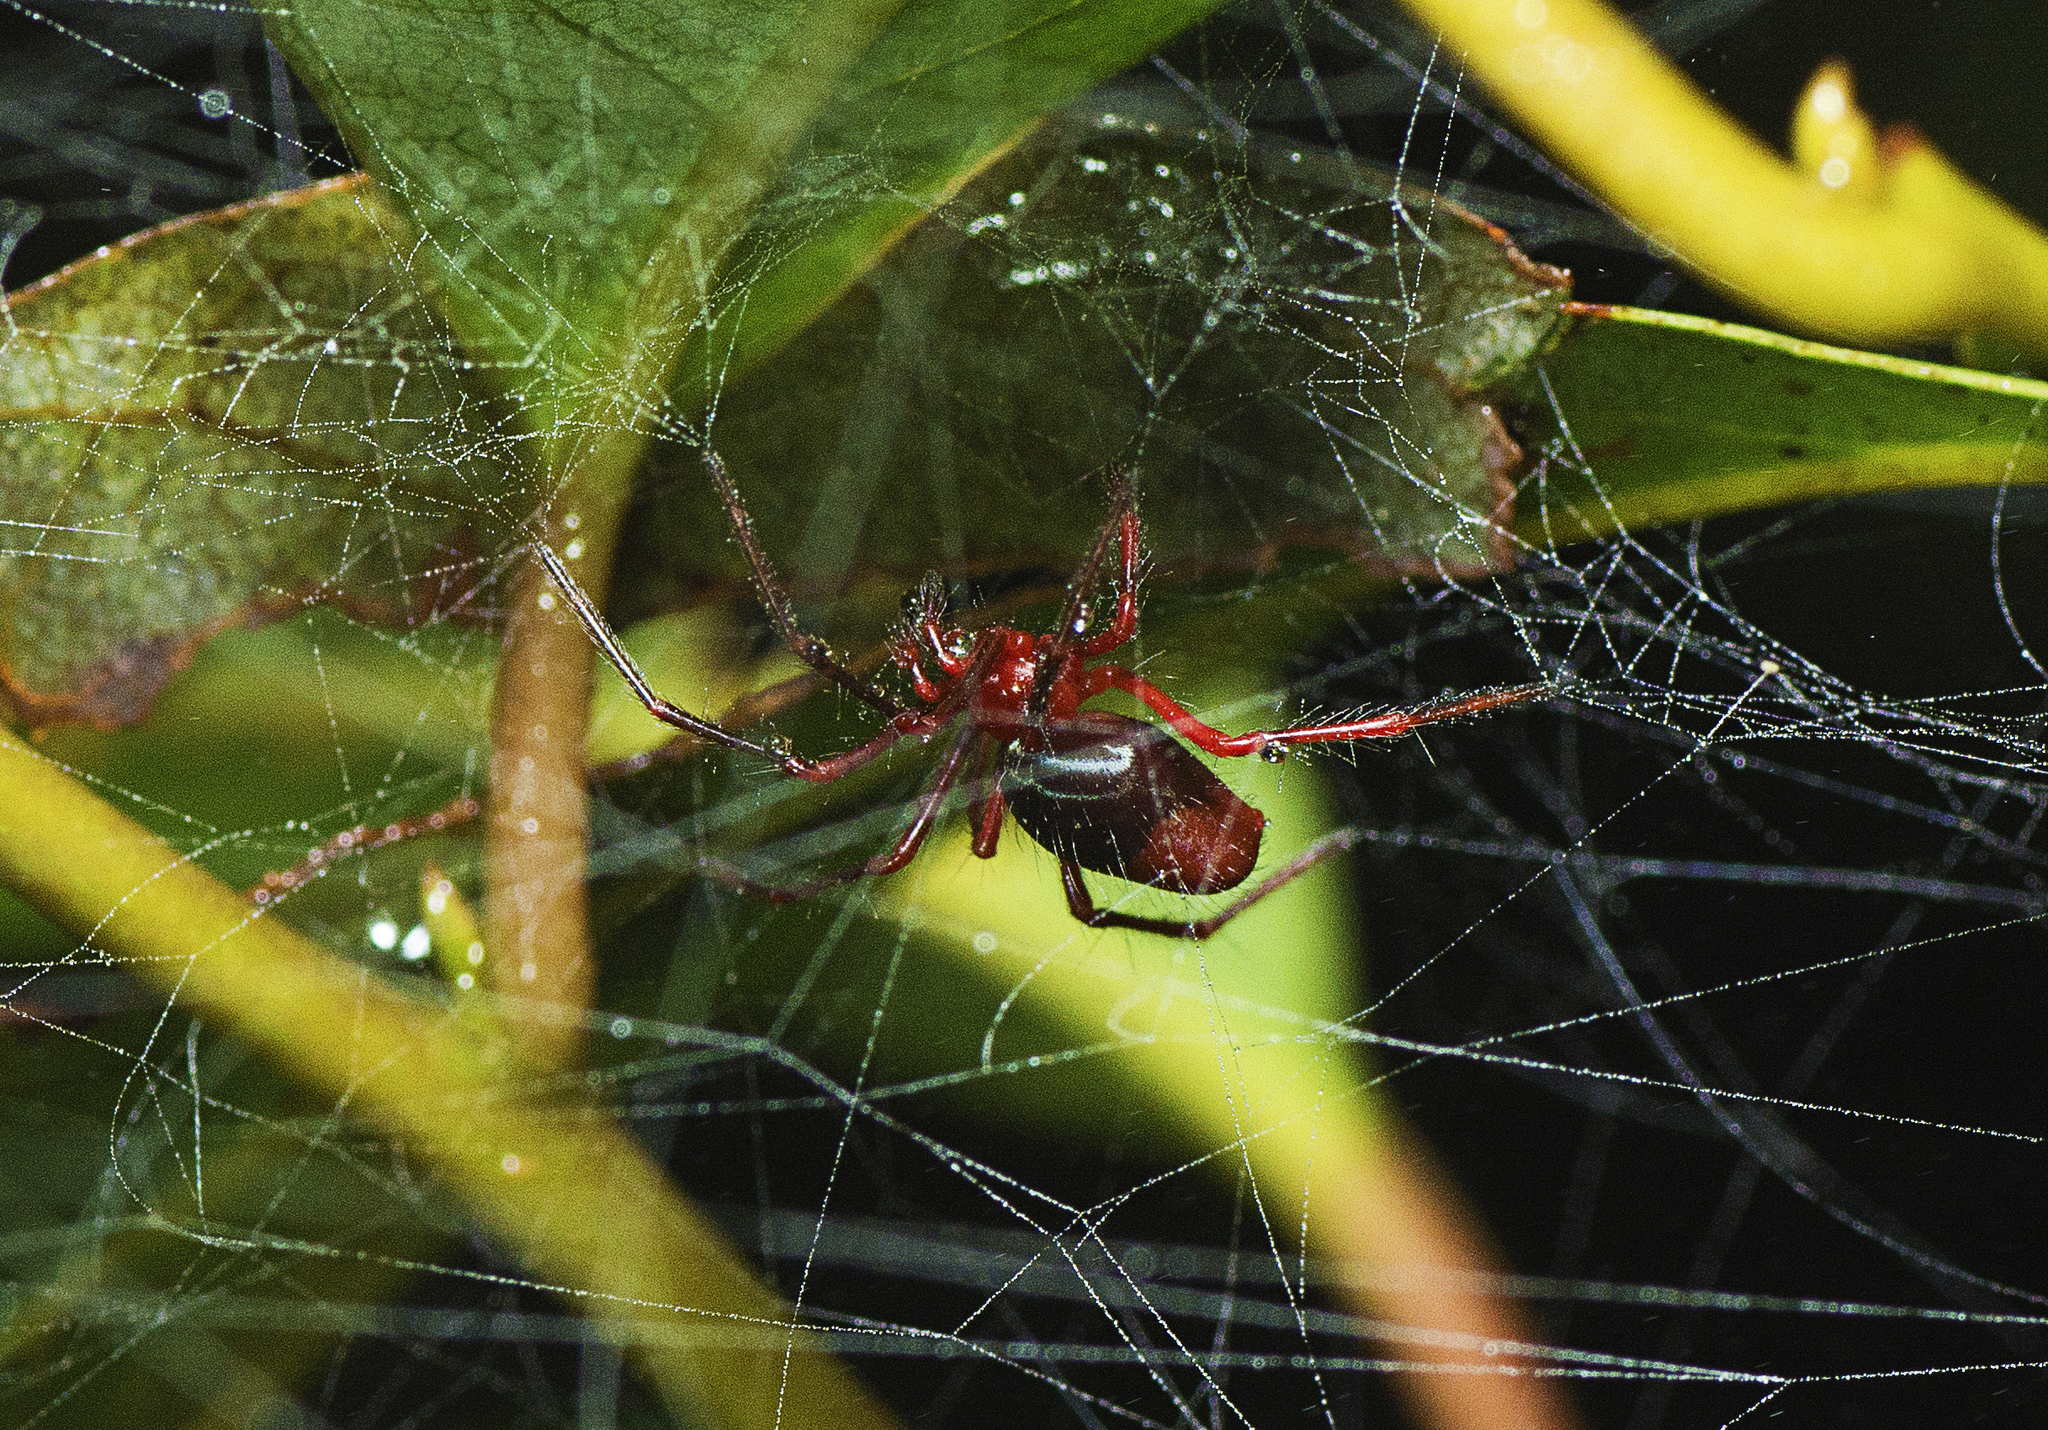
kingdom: Animalia
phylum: Arthropoda
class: Arachnida
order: Araneae
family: Nicodamidae
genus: Dimidamus
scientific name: Dimidamus dimidiatus
